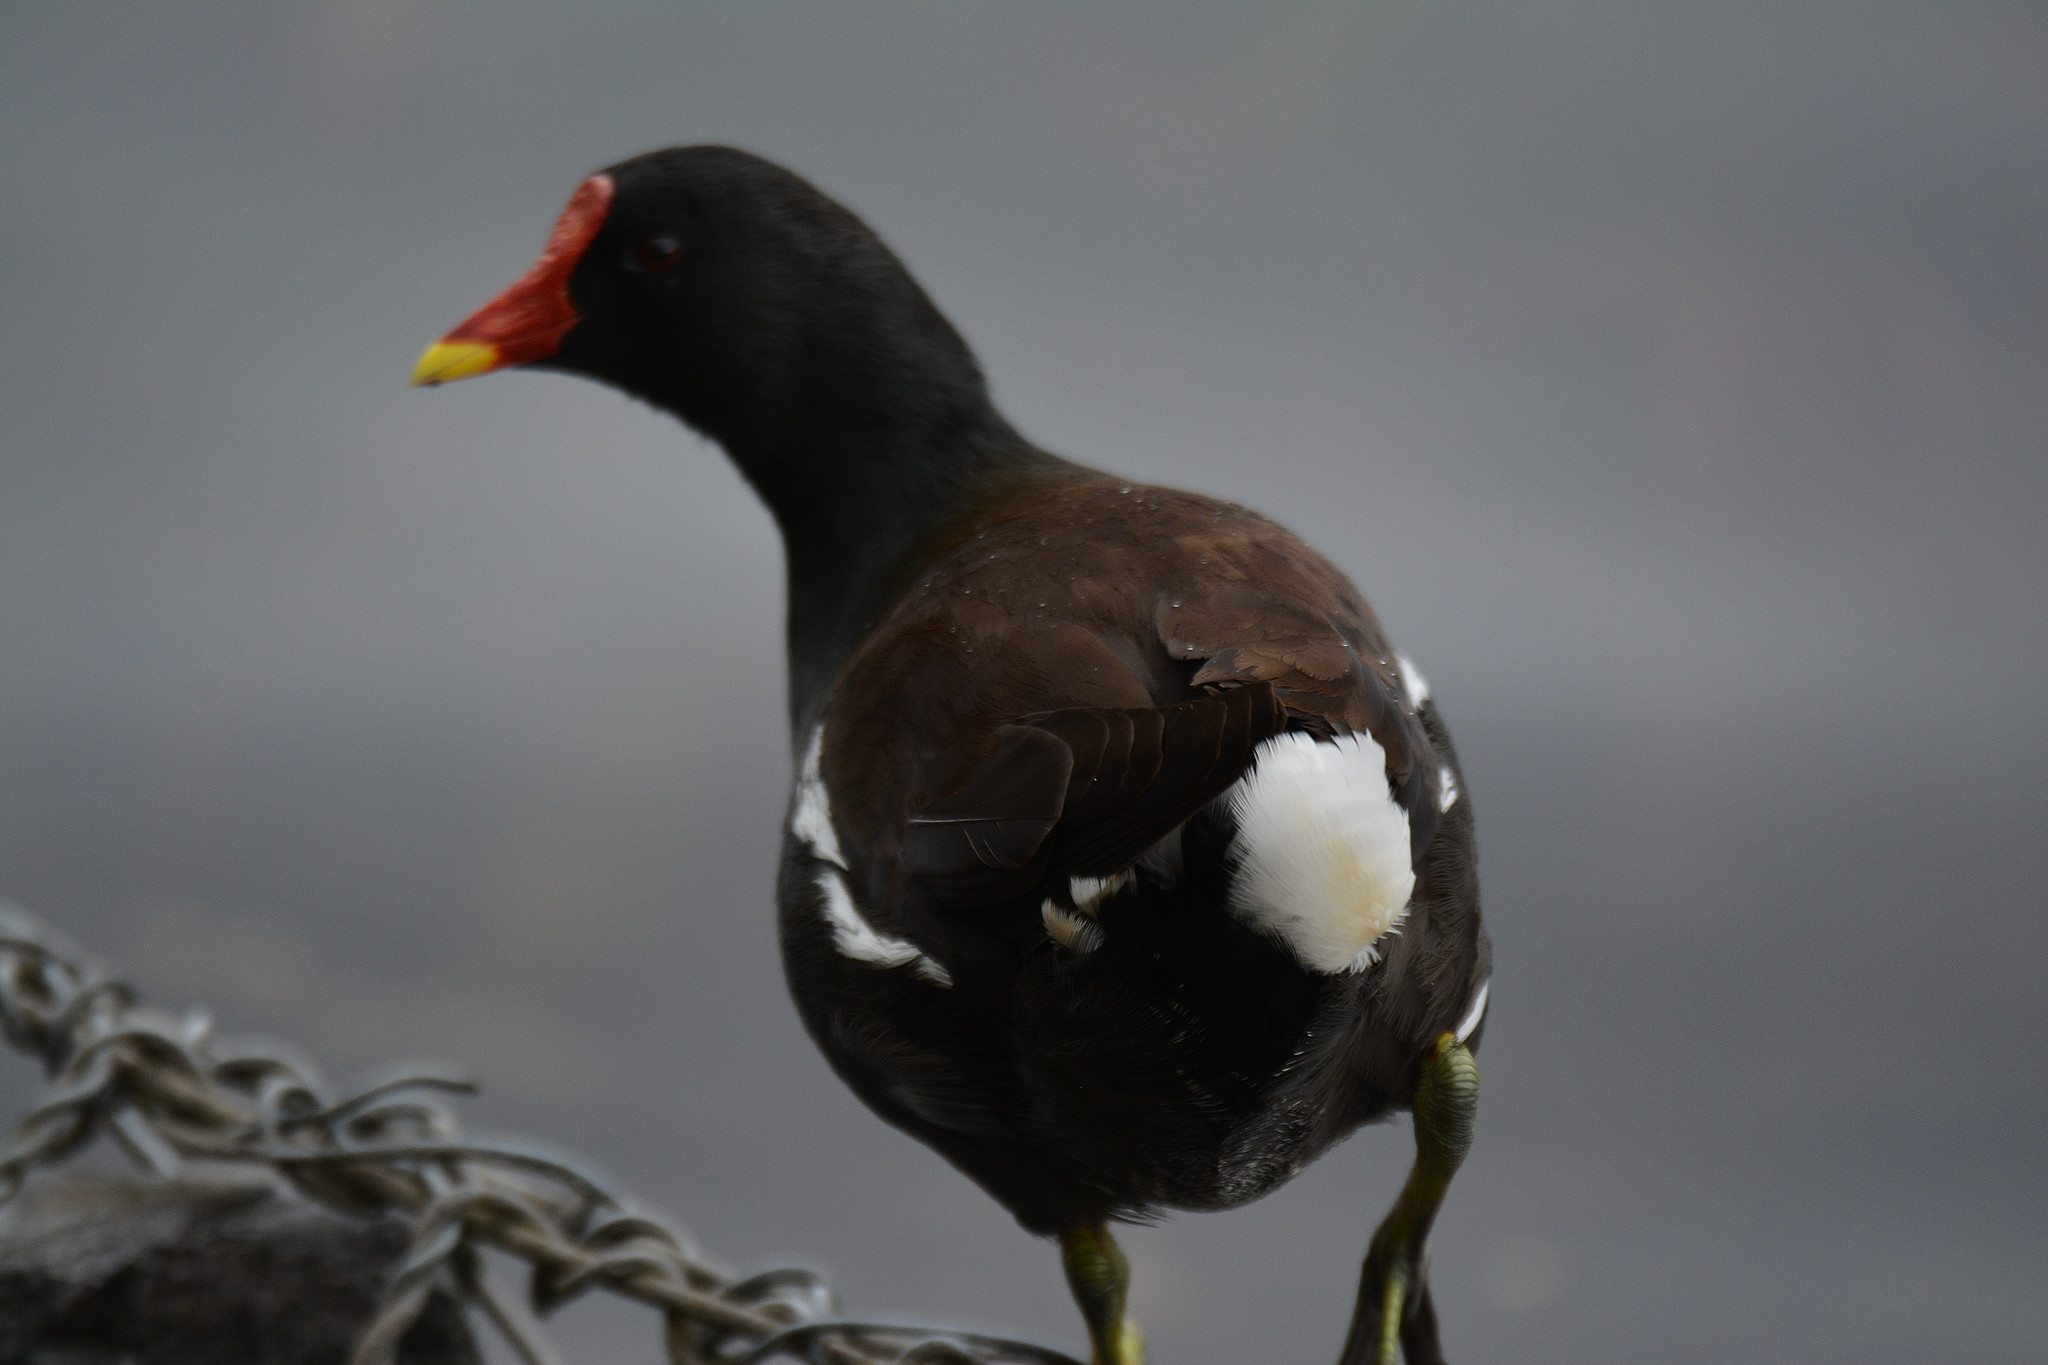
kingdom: Animalia
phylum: Chordata
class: Aves
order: Gruiformes
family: Rallidae
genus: Gallinula
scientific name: Gallinula chloropus
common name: Common moorhen
